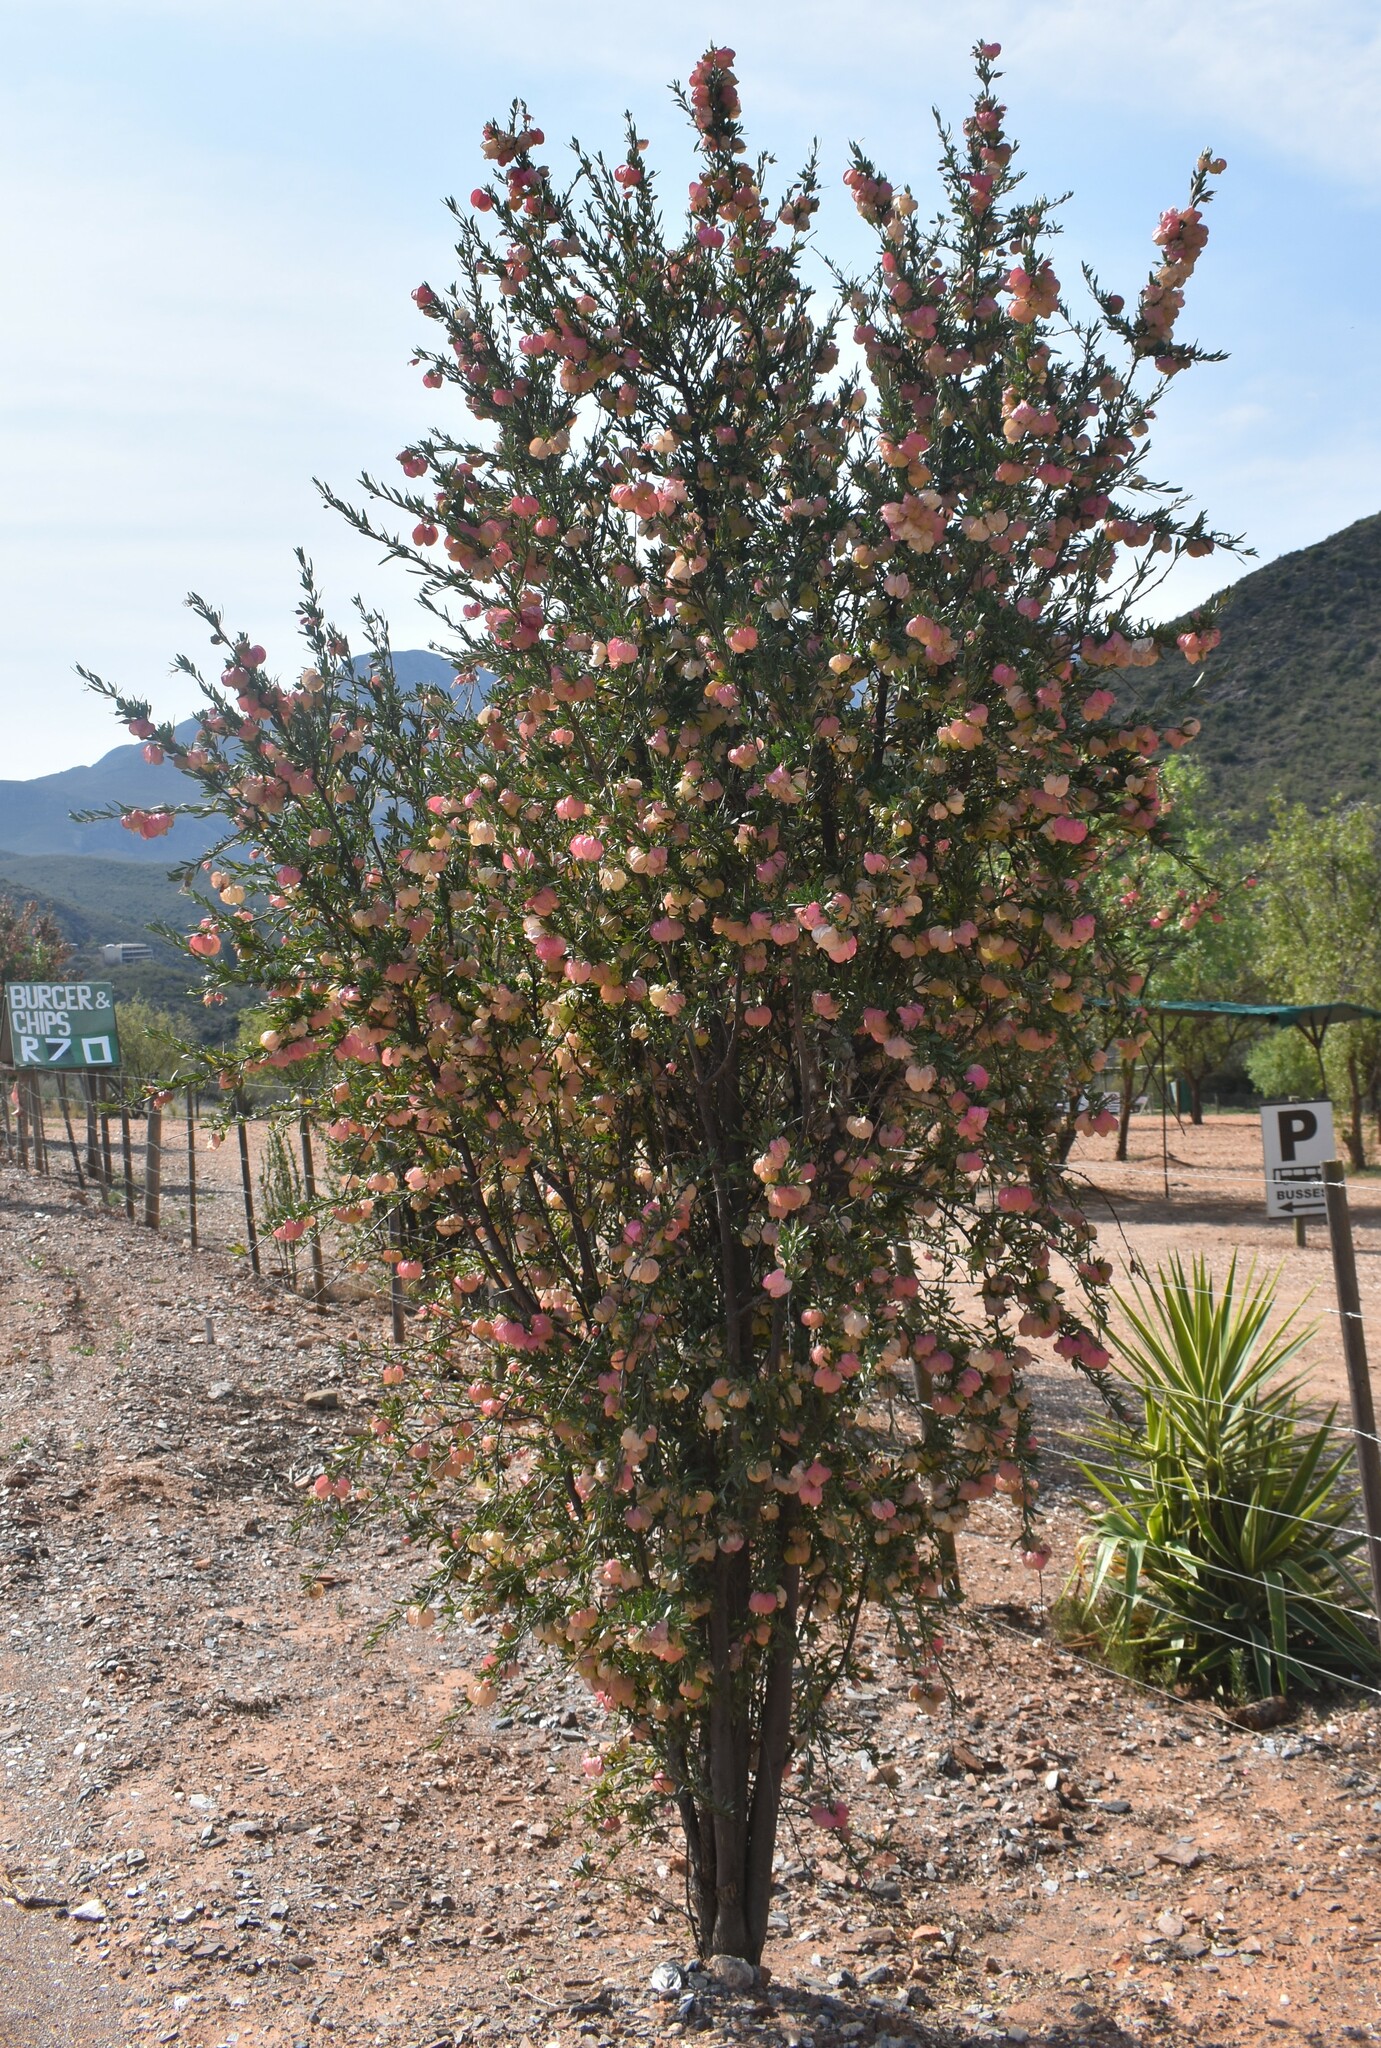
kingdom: Plantae
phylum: Tracheophyta
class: Magnoliopsida
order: Sapindales
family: Meliaceae
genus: Nymania
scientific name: Nymania capensis
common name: Chinese lantern tree
